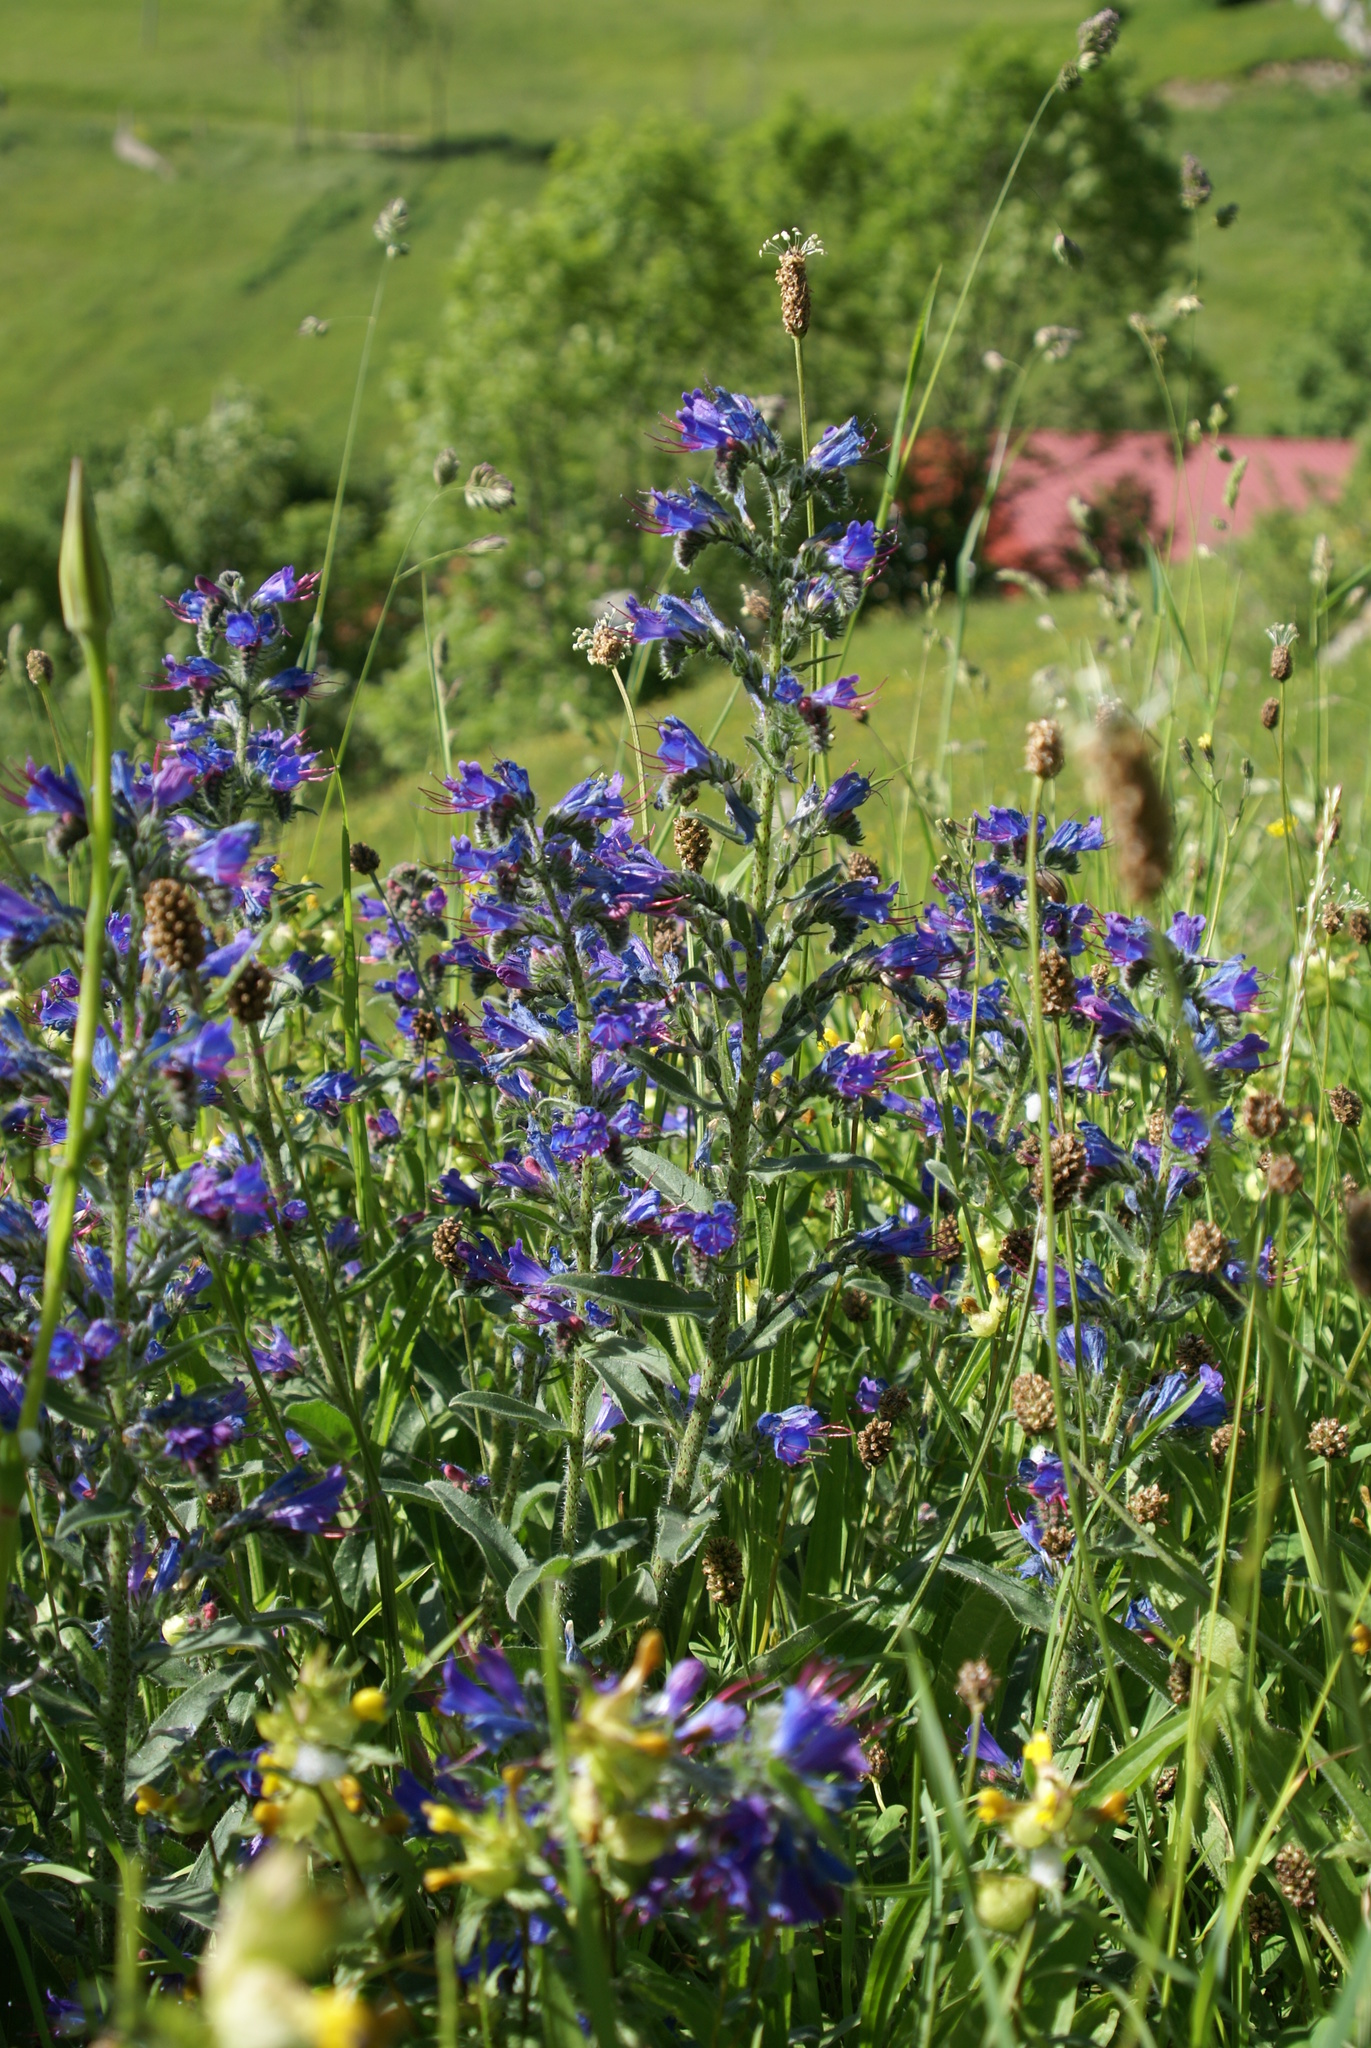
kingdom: Plantae
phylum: Tracheophyta
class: Magnoliopsida
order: Boraginales
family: Boraginaceae
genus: Echium
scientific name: Echium vulgare
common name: Common viper's bugloss
